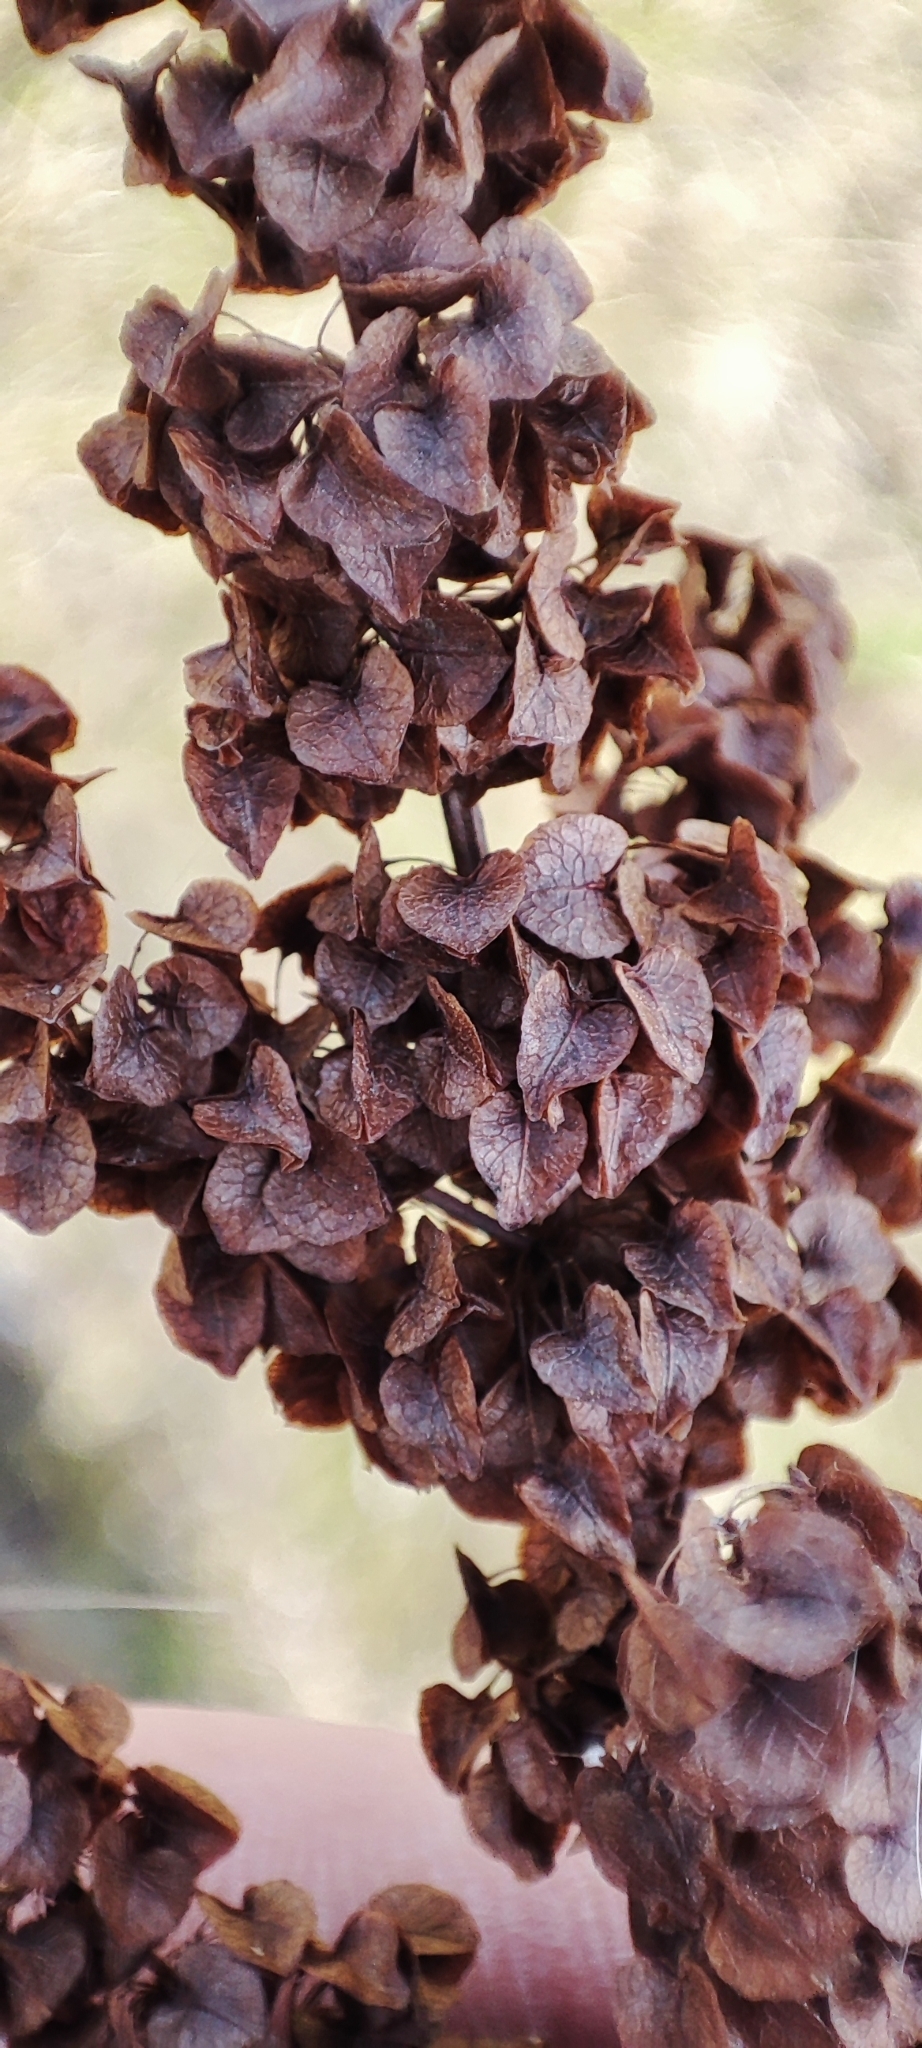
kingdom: Plantae
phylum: Tracheophyta
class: Magnoliopsida
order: Caryophyllales
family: Polygonaceae
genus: Rumex
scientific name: Rumex pseudonatronatus
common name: Field dock
